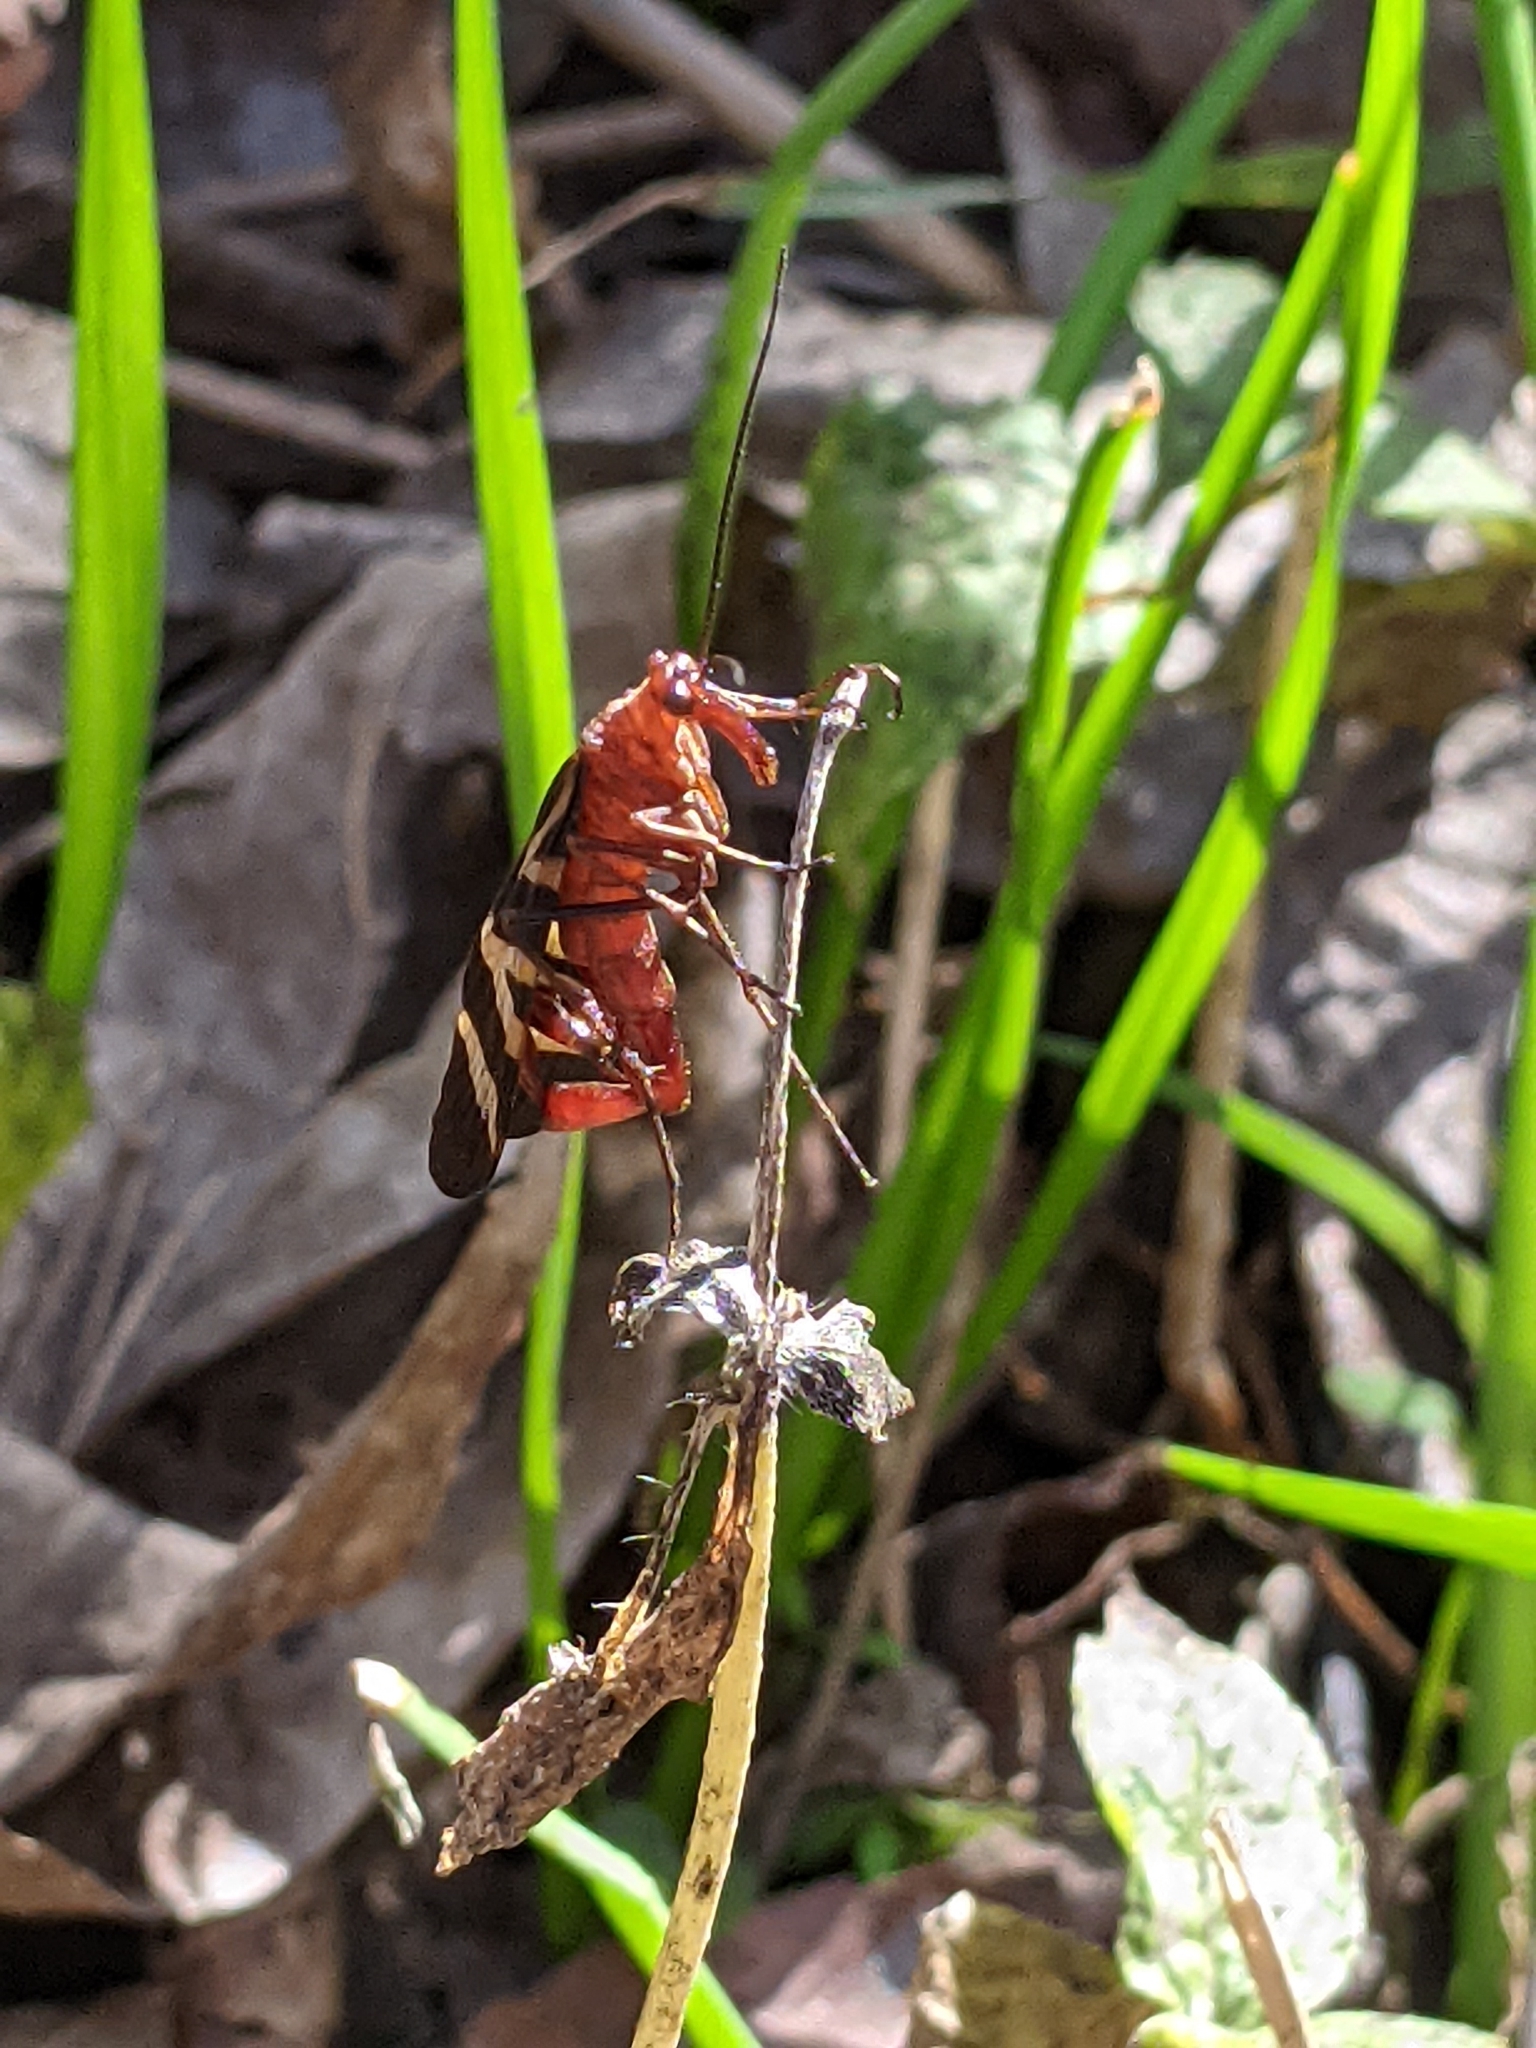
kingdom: Animalia
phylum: Arthropoda
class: Insecta
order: Mecoptera
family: Panorpidae
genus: Panorpa
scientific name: Panorpa nuptialis
